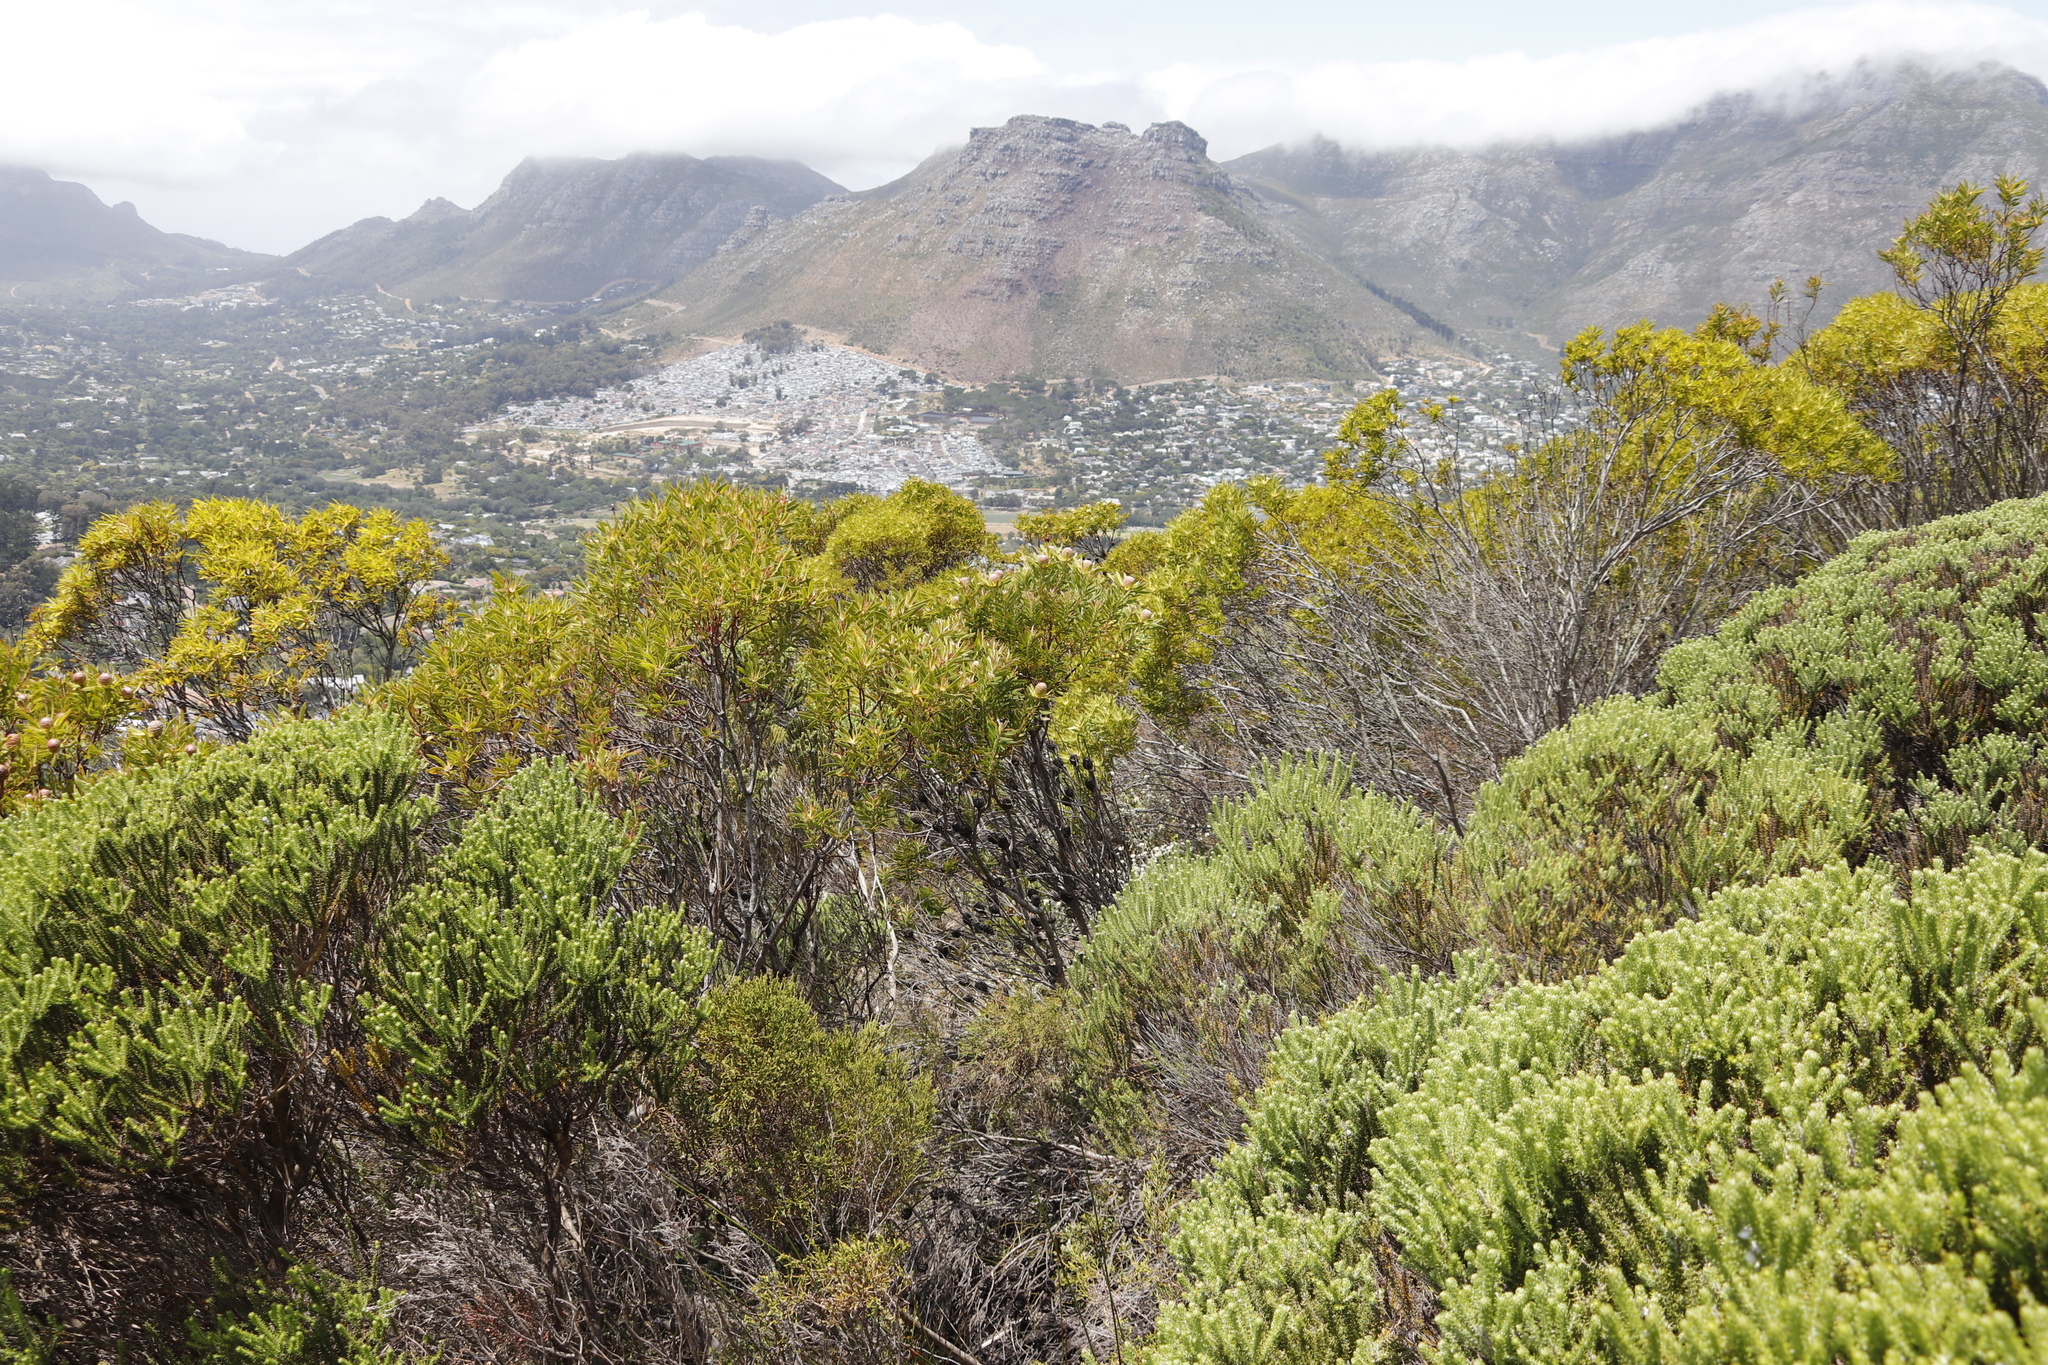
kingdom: Plantae
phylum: Tracheophyta
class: Magnoliopsida
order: Proteales
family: Proteaceae
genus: Leucadendron
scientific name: Leucadendron coniferum
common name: Dune conebush
